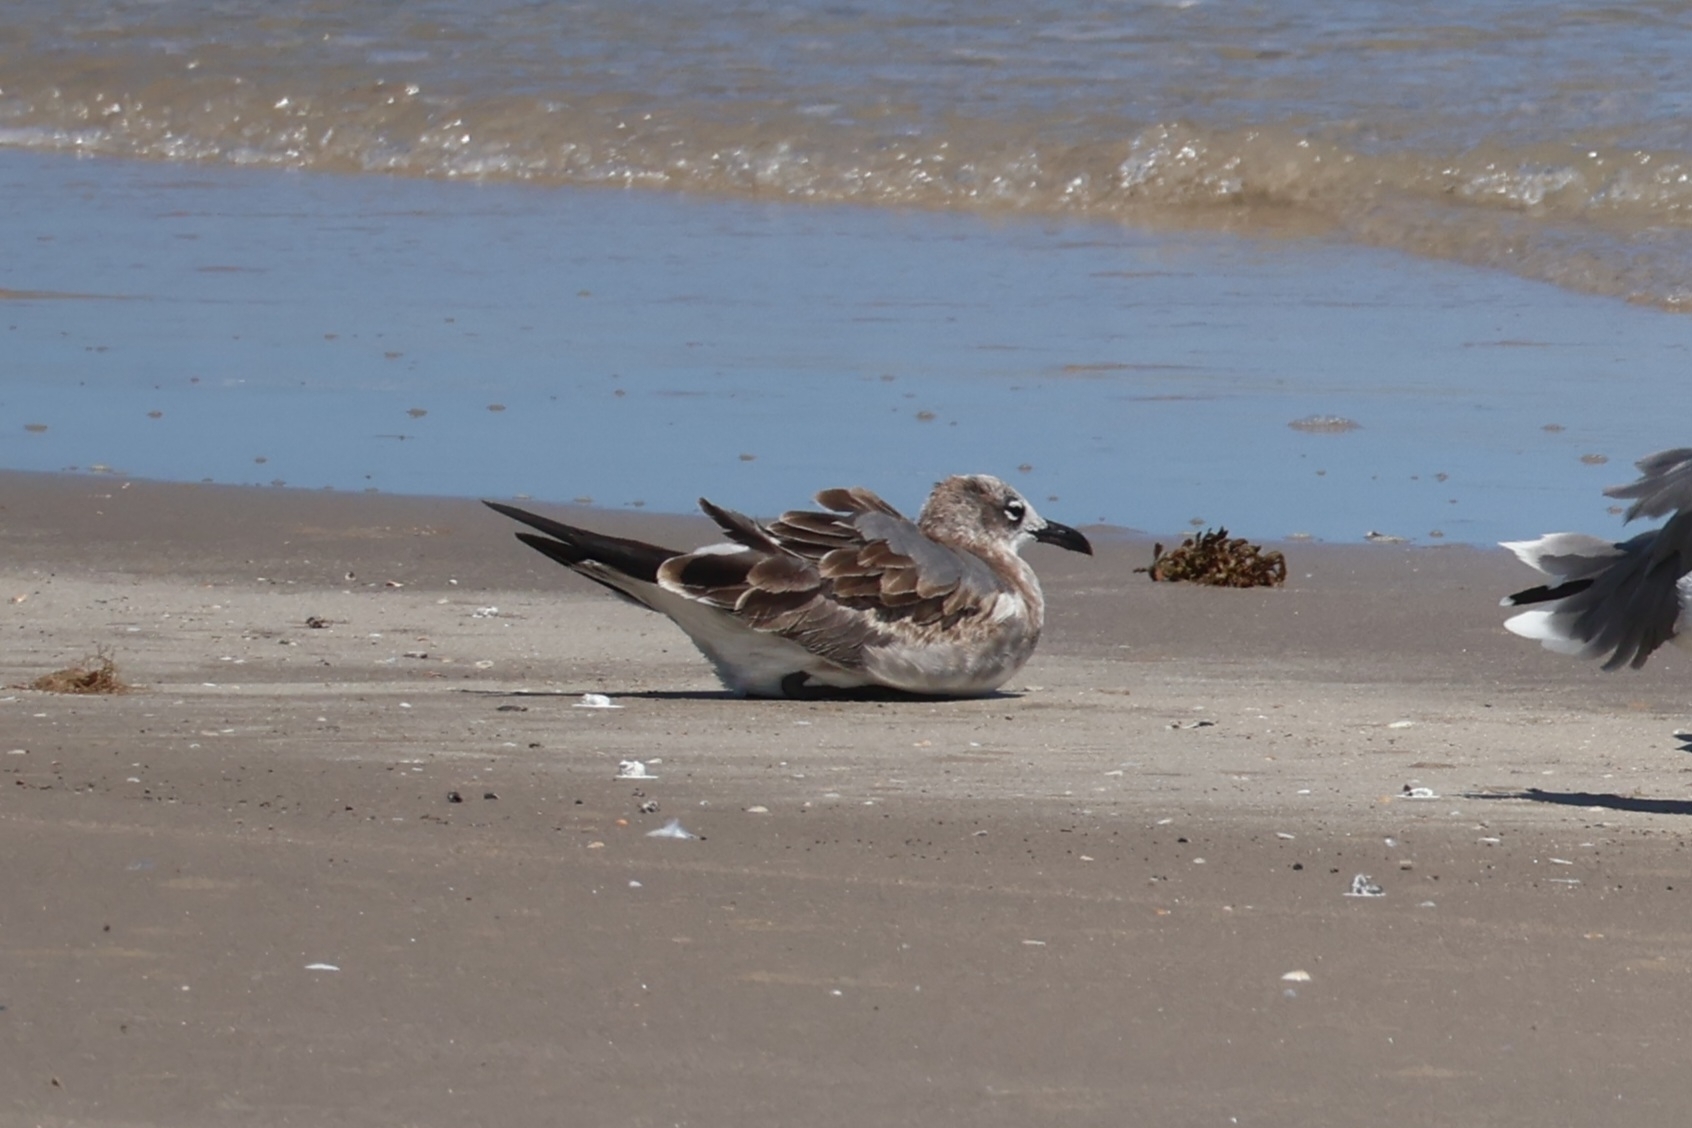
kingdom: Animalia
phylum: Chordata
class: Aves
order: Charadriiformes
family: Laridae
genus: Leucophaeus
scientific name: Leucophaeus atricilla
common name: Laughing gull
